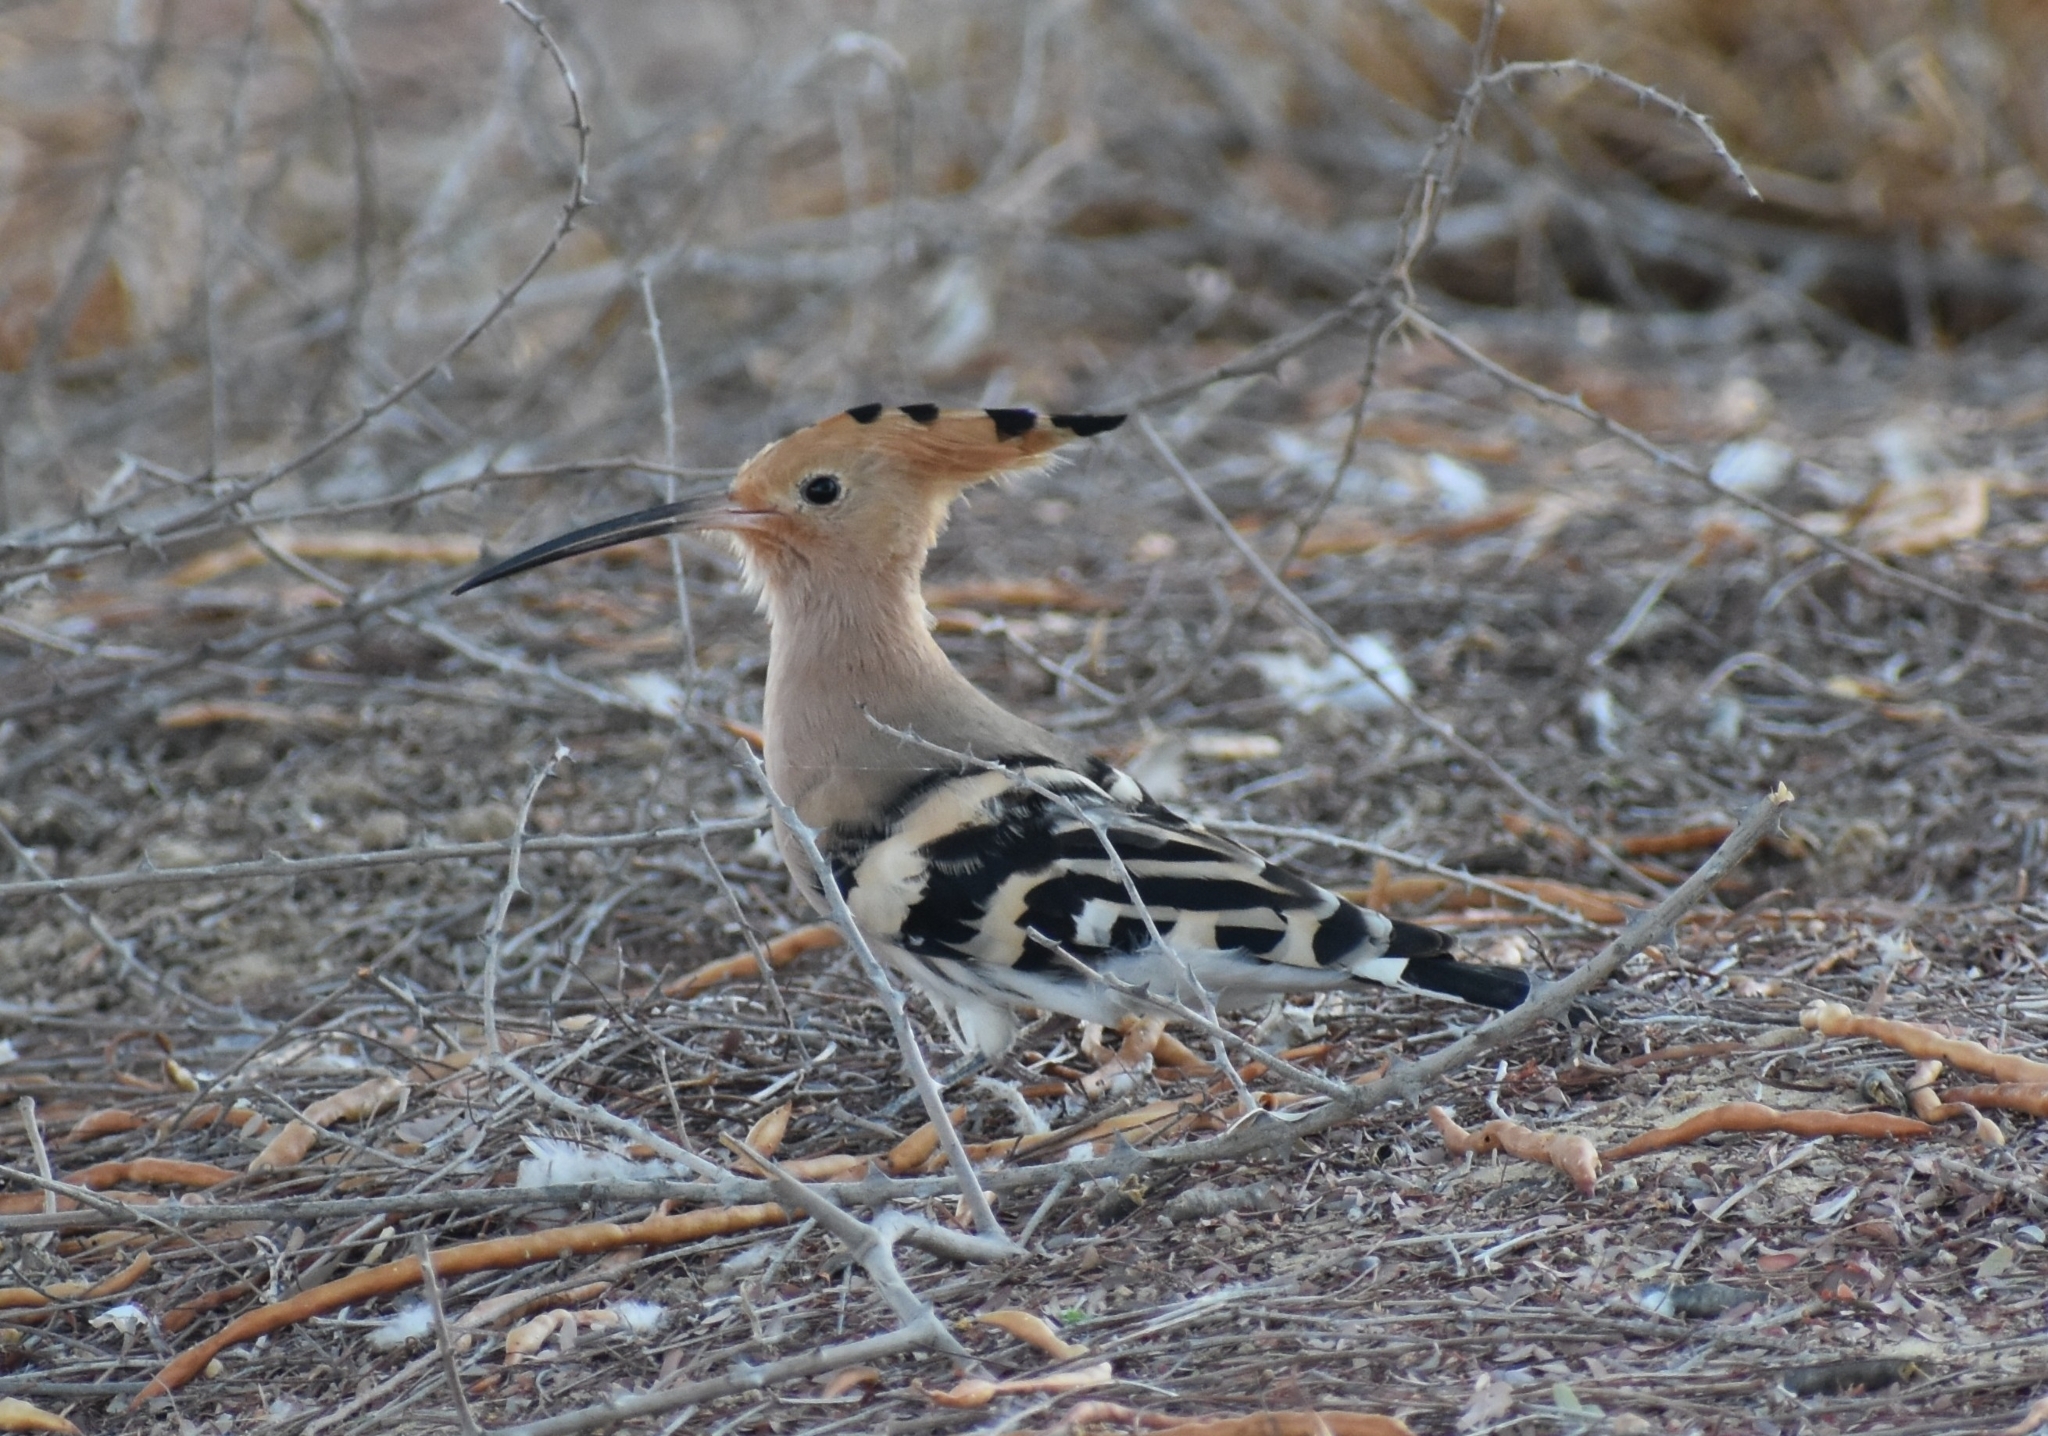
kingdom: Animalia
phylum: Chordata
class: Aves
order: Bucerotiformes
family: Upupidae
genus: Upupa
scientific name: Upupa epops
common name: Eurasian hoopoe
